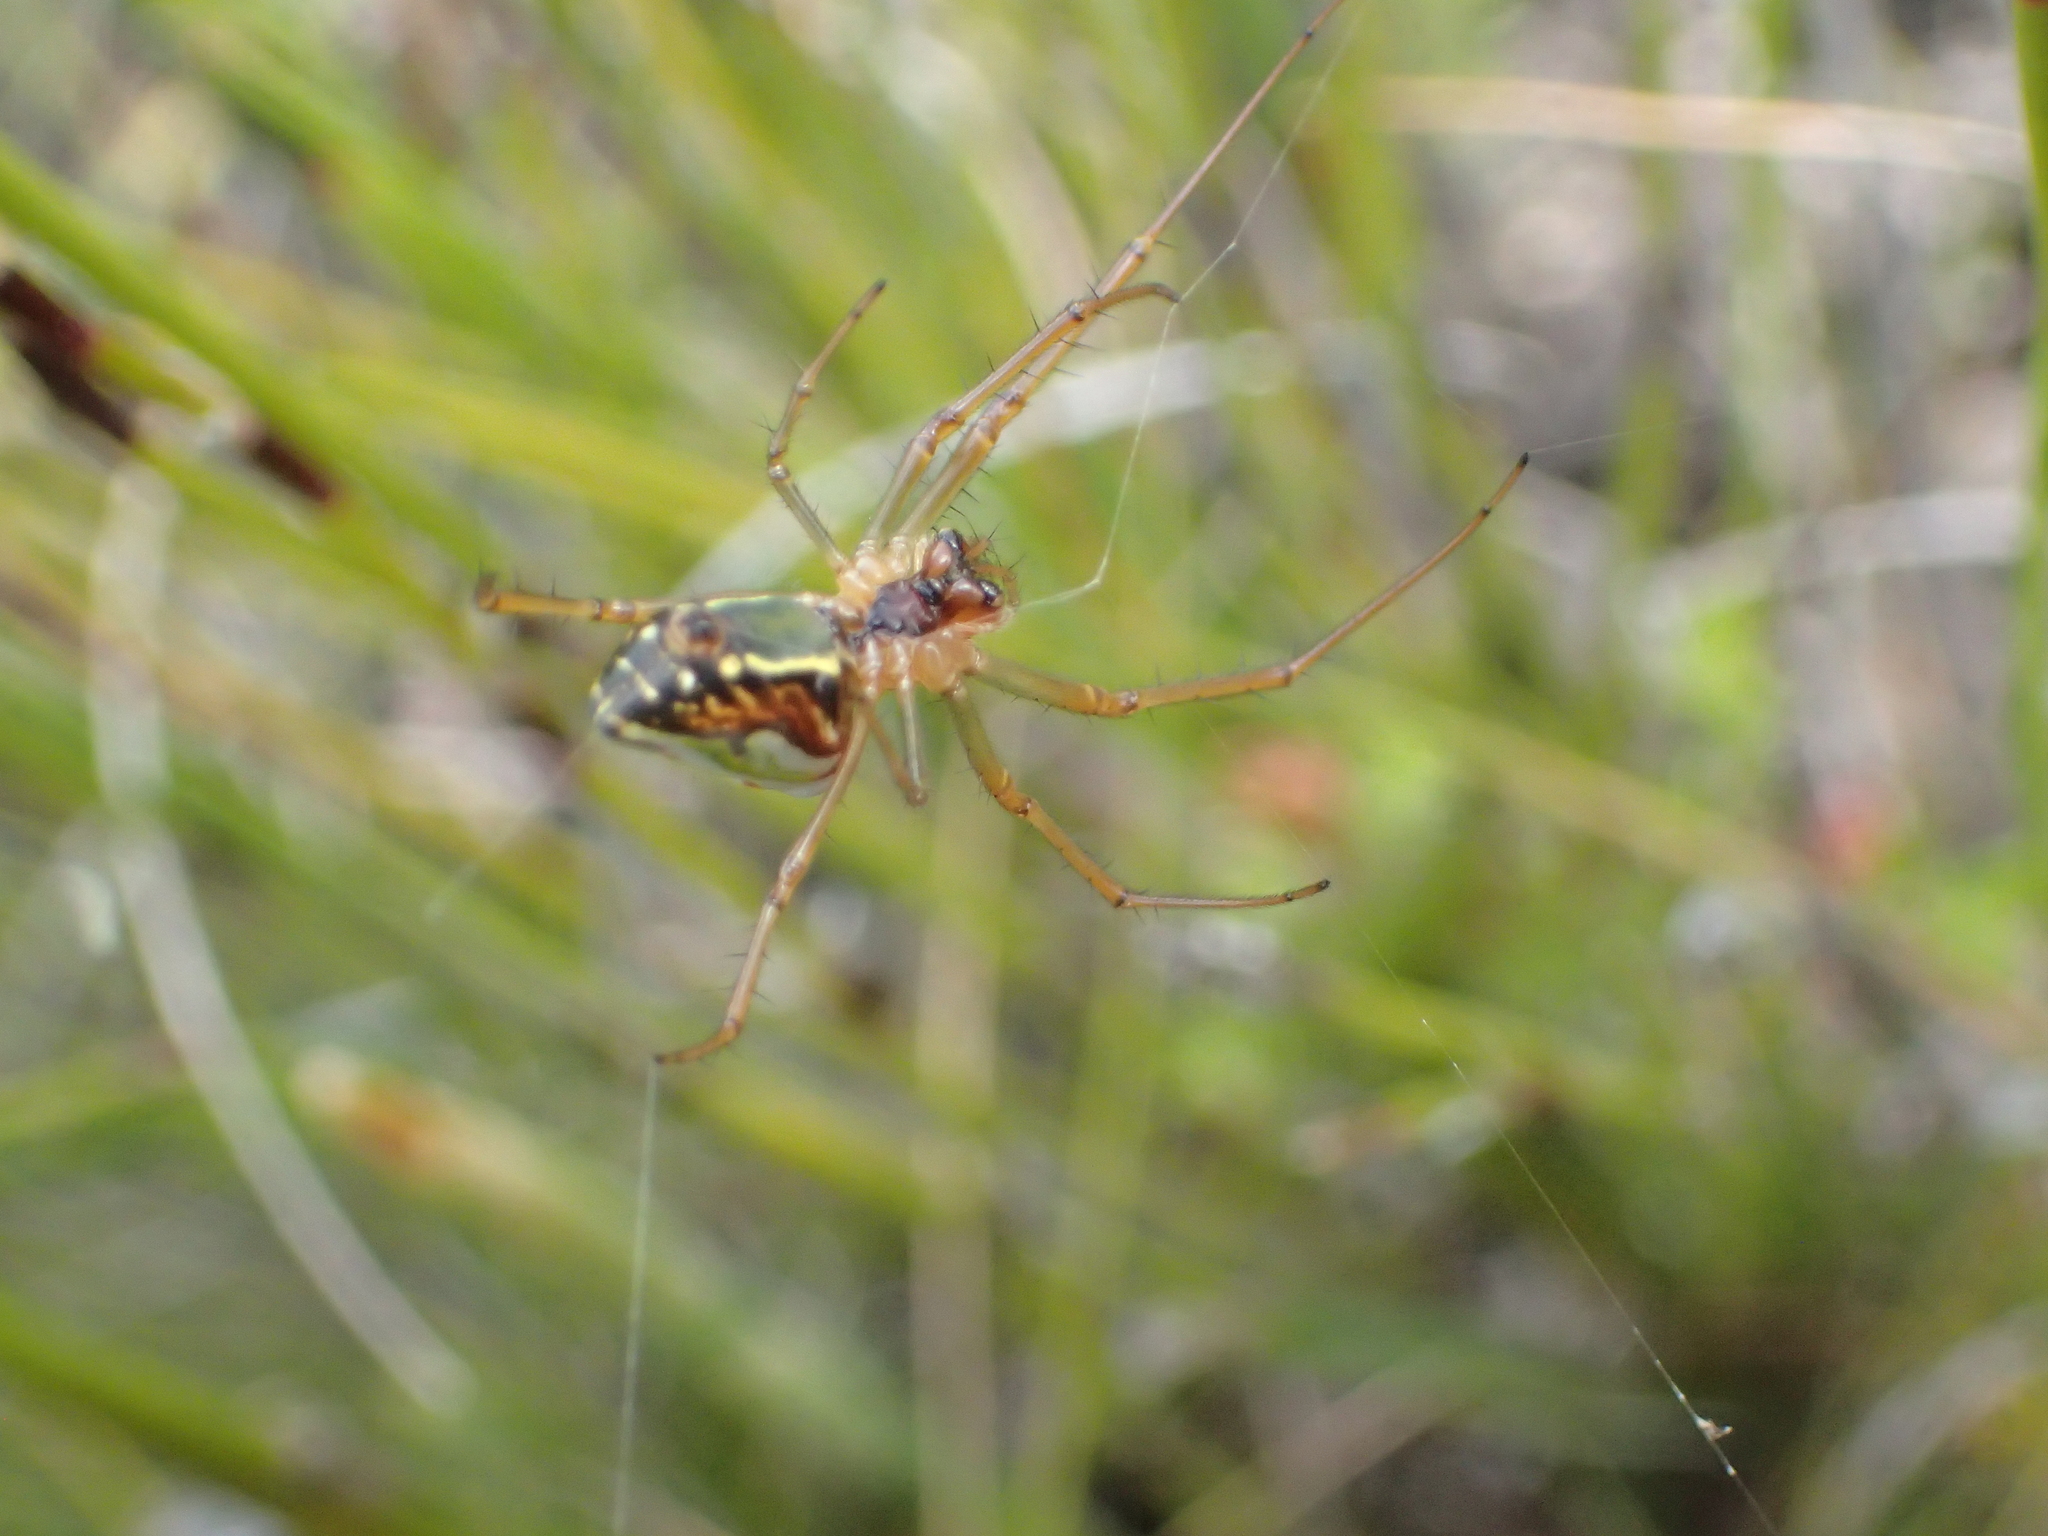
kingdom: Animalia
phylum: Arthropoda
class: Arachnida
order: Araneae
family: Tetragnathidae
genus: Leucauge
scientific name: Leucauge festiva
